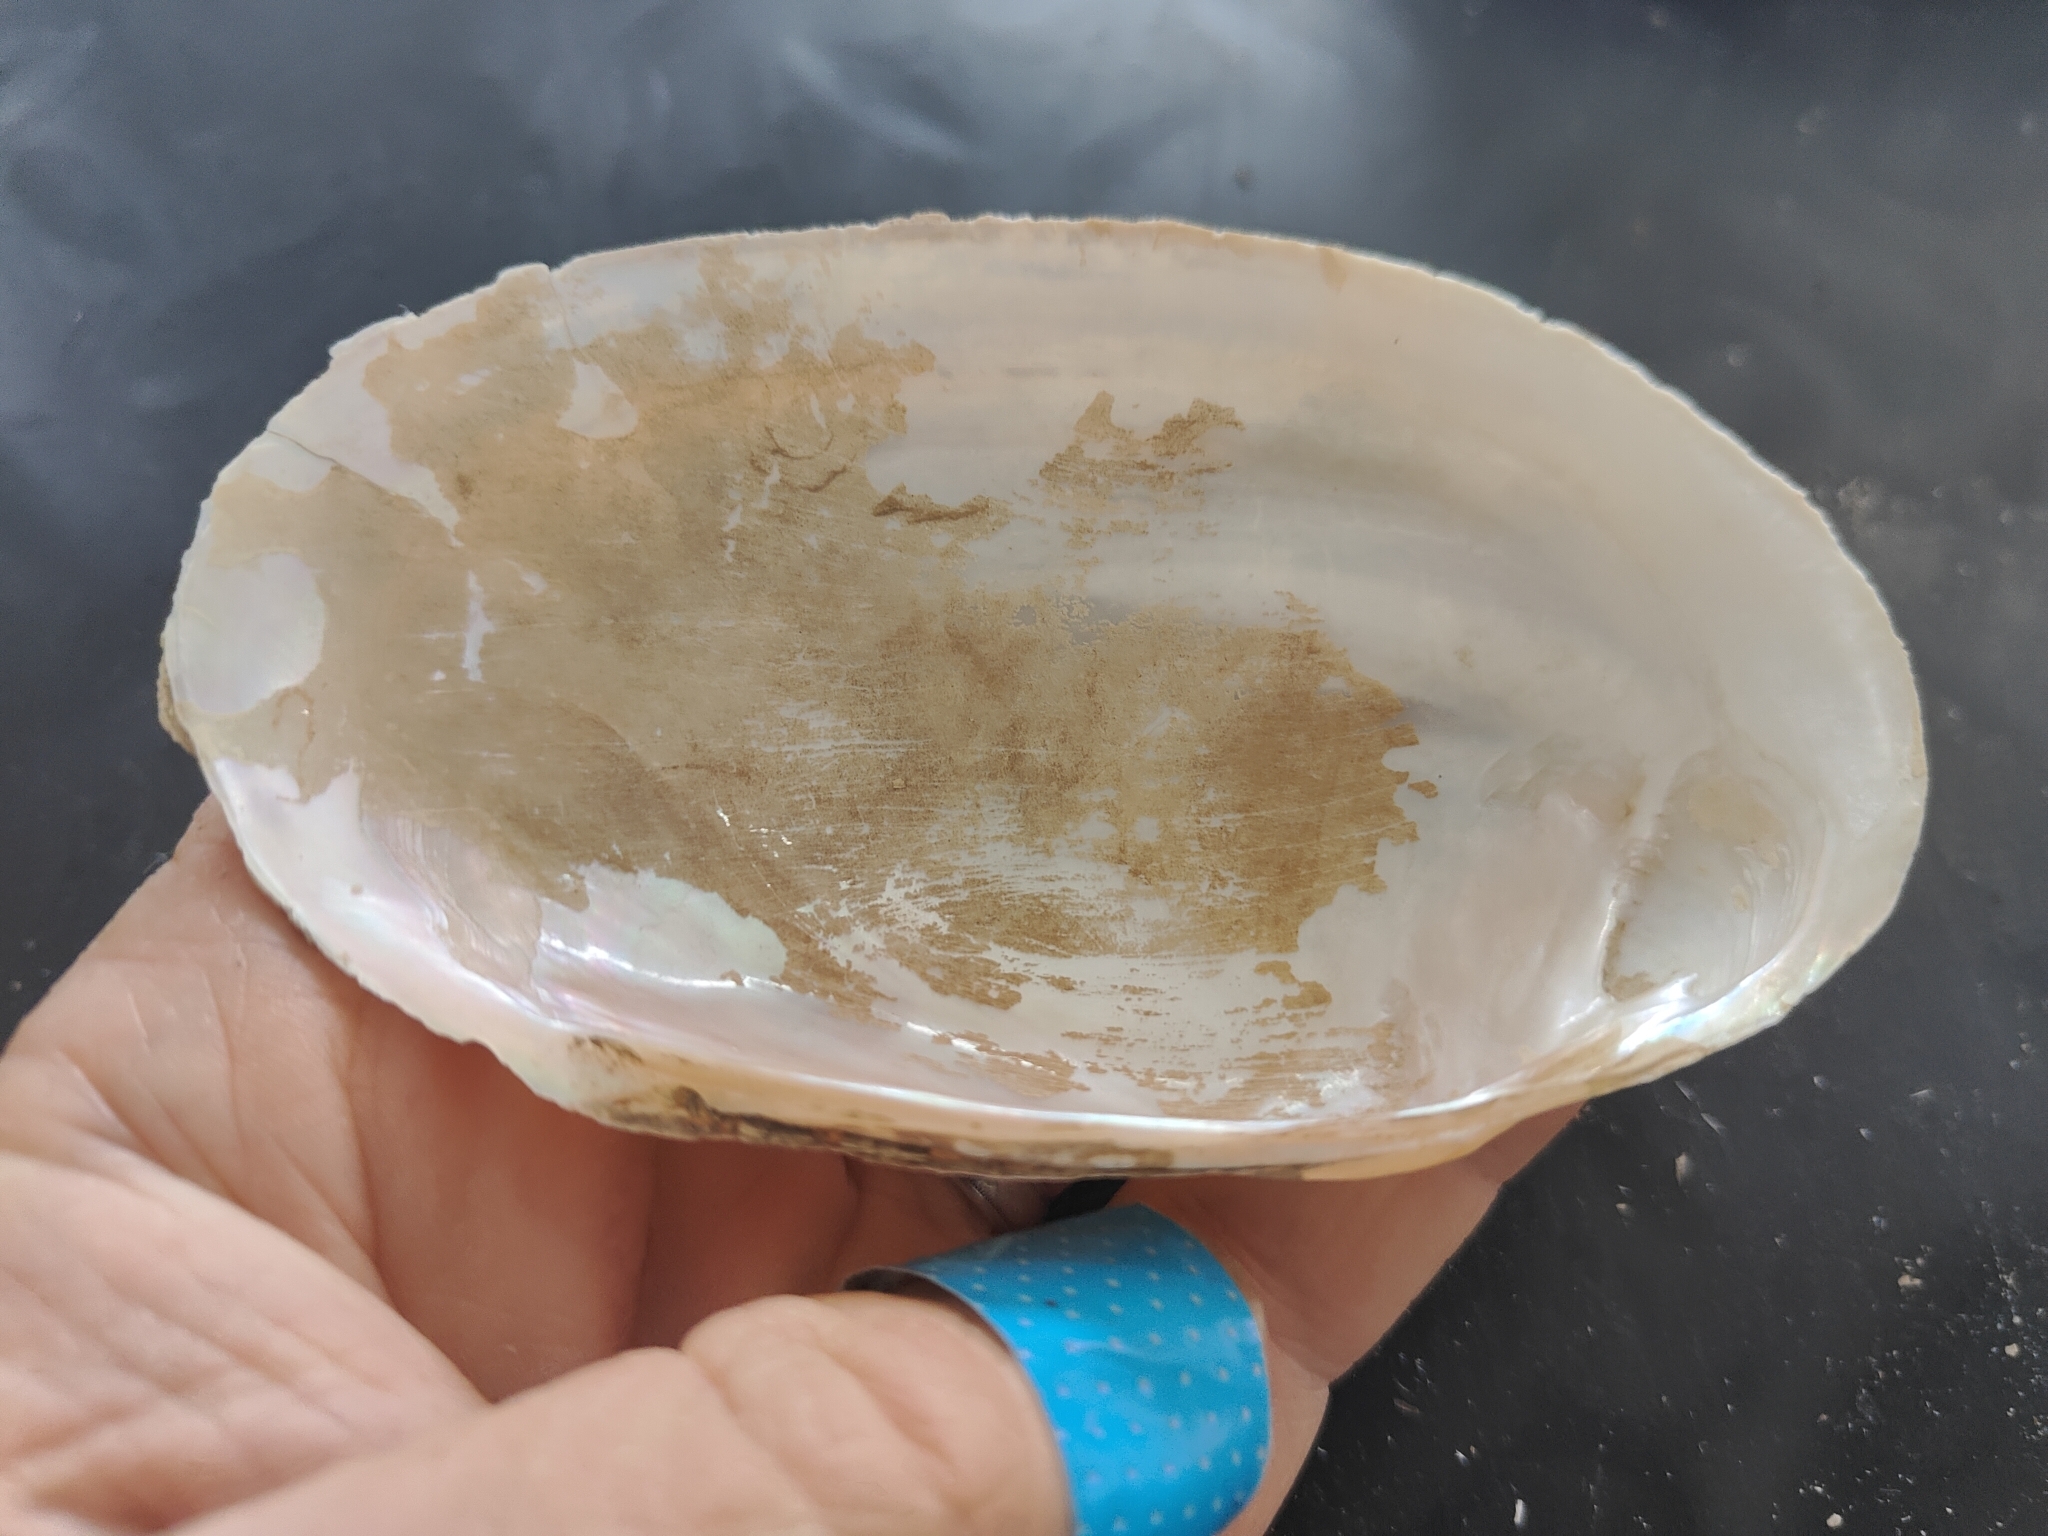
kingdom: Animalia
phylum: Mollusca
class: Bivalvia
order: Unionida
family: Unionidae
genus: Potamilus
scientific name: Potamilus fragilis
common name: Fragile papershell
